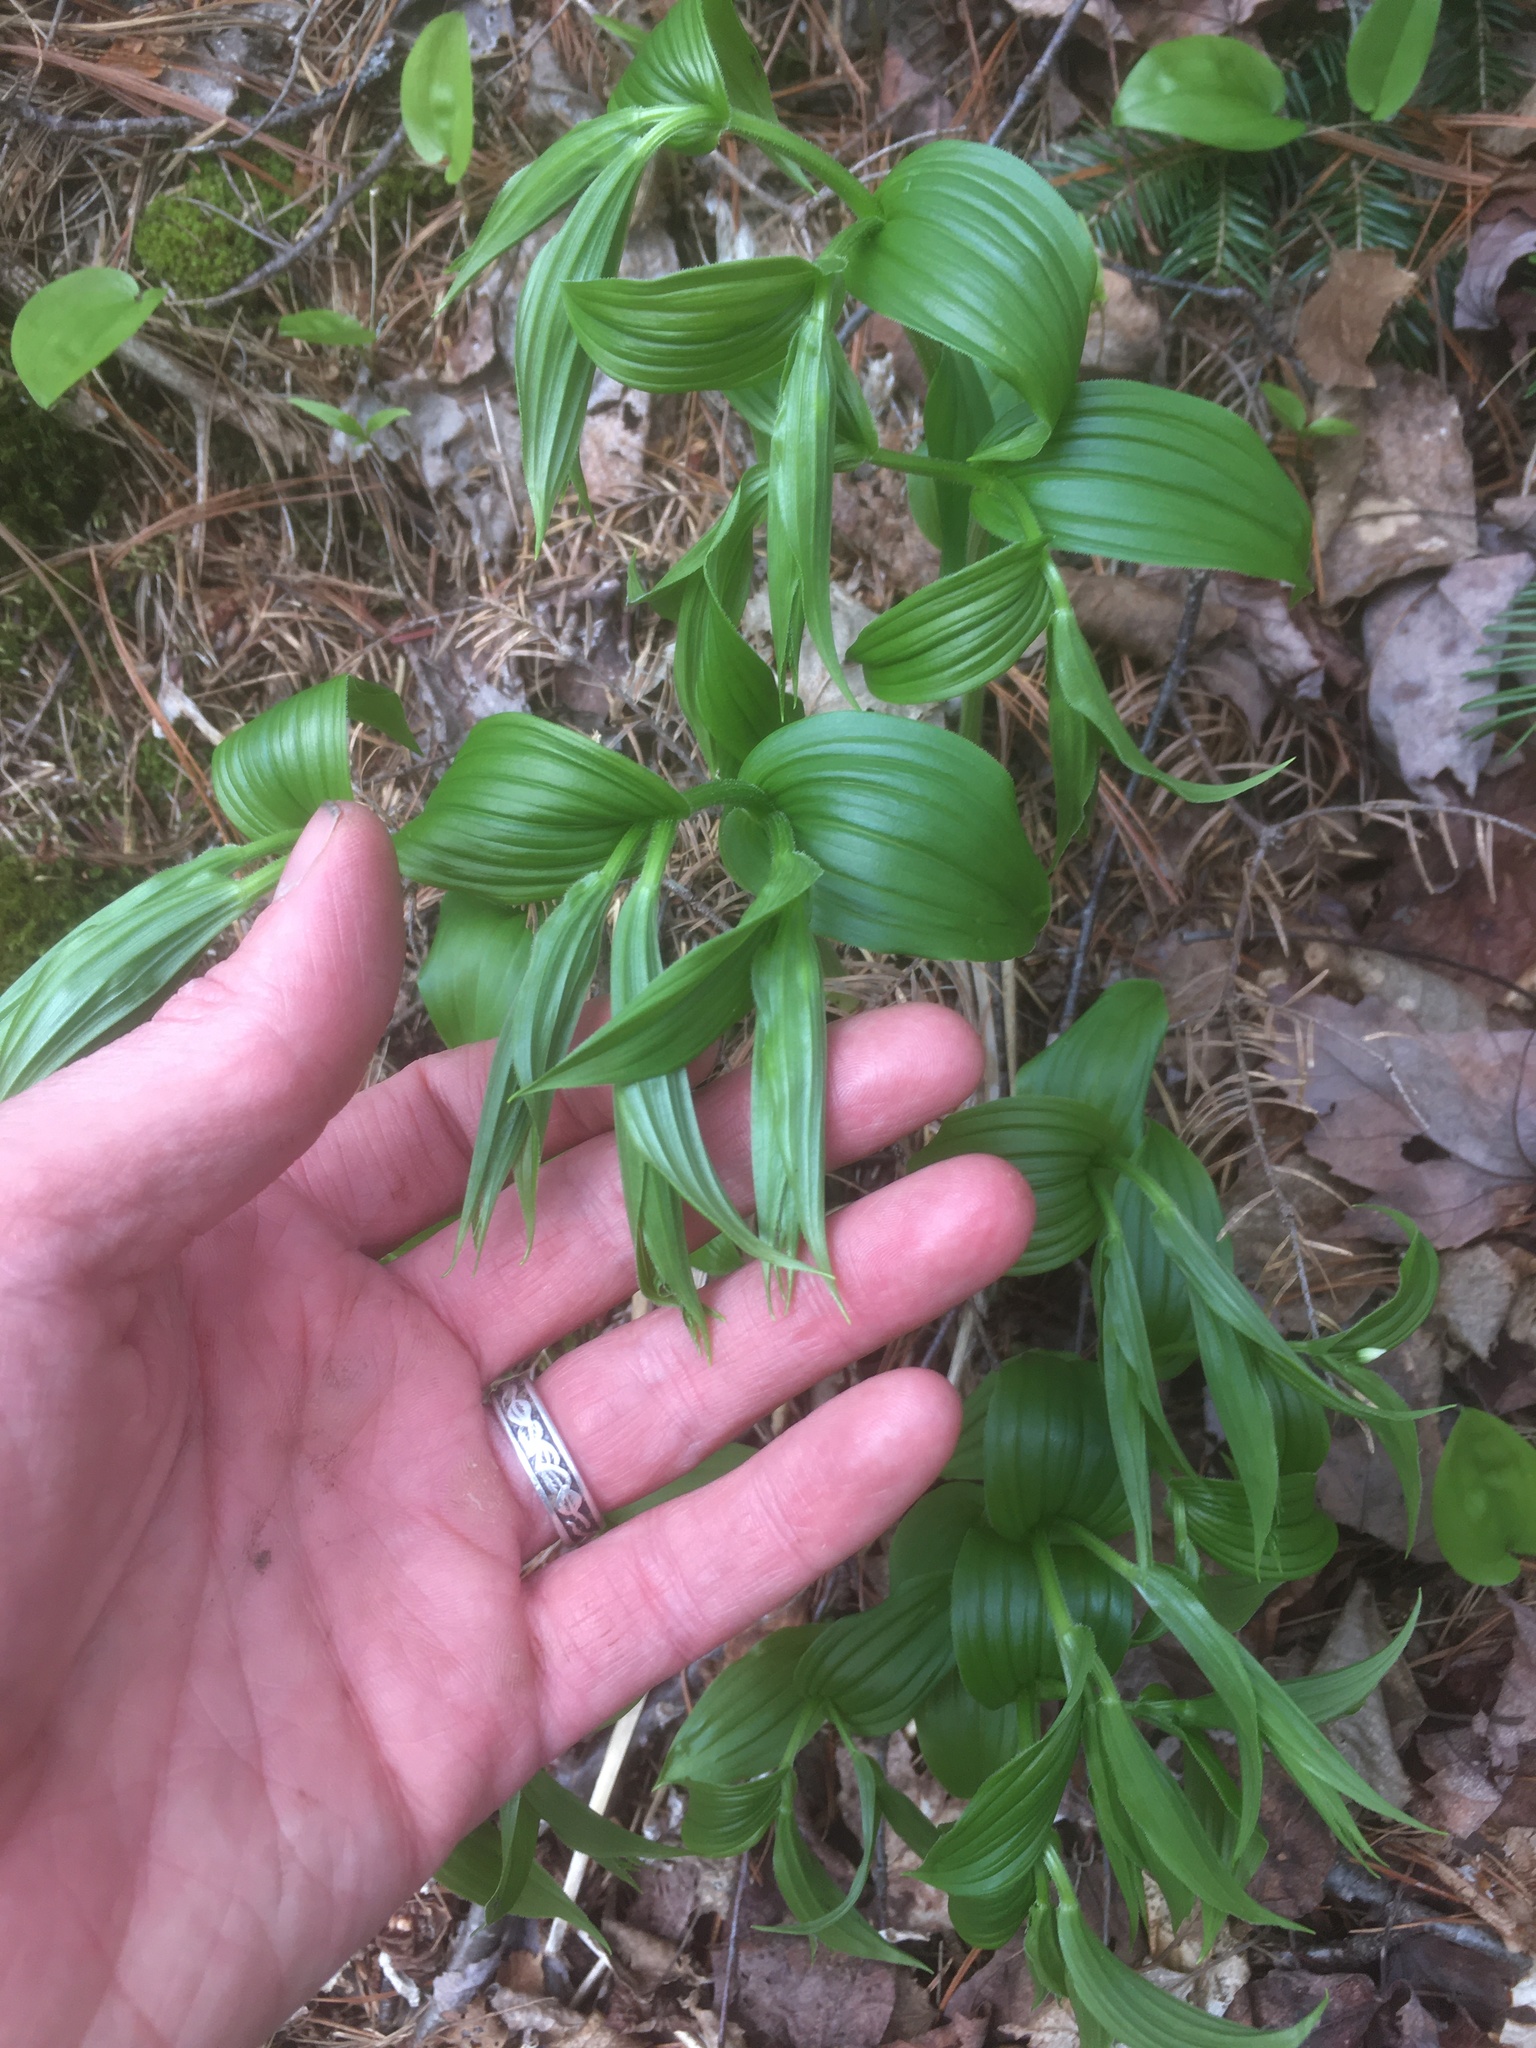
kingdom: Plantae
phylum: Tracheophyta
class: Liliopsida
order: Liliales
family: Liliaceae
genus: Streptopus
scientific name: Streptopus lanceolatus
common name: Rose mandarin
